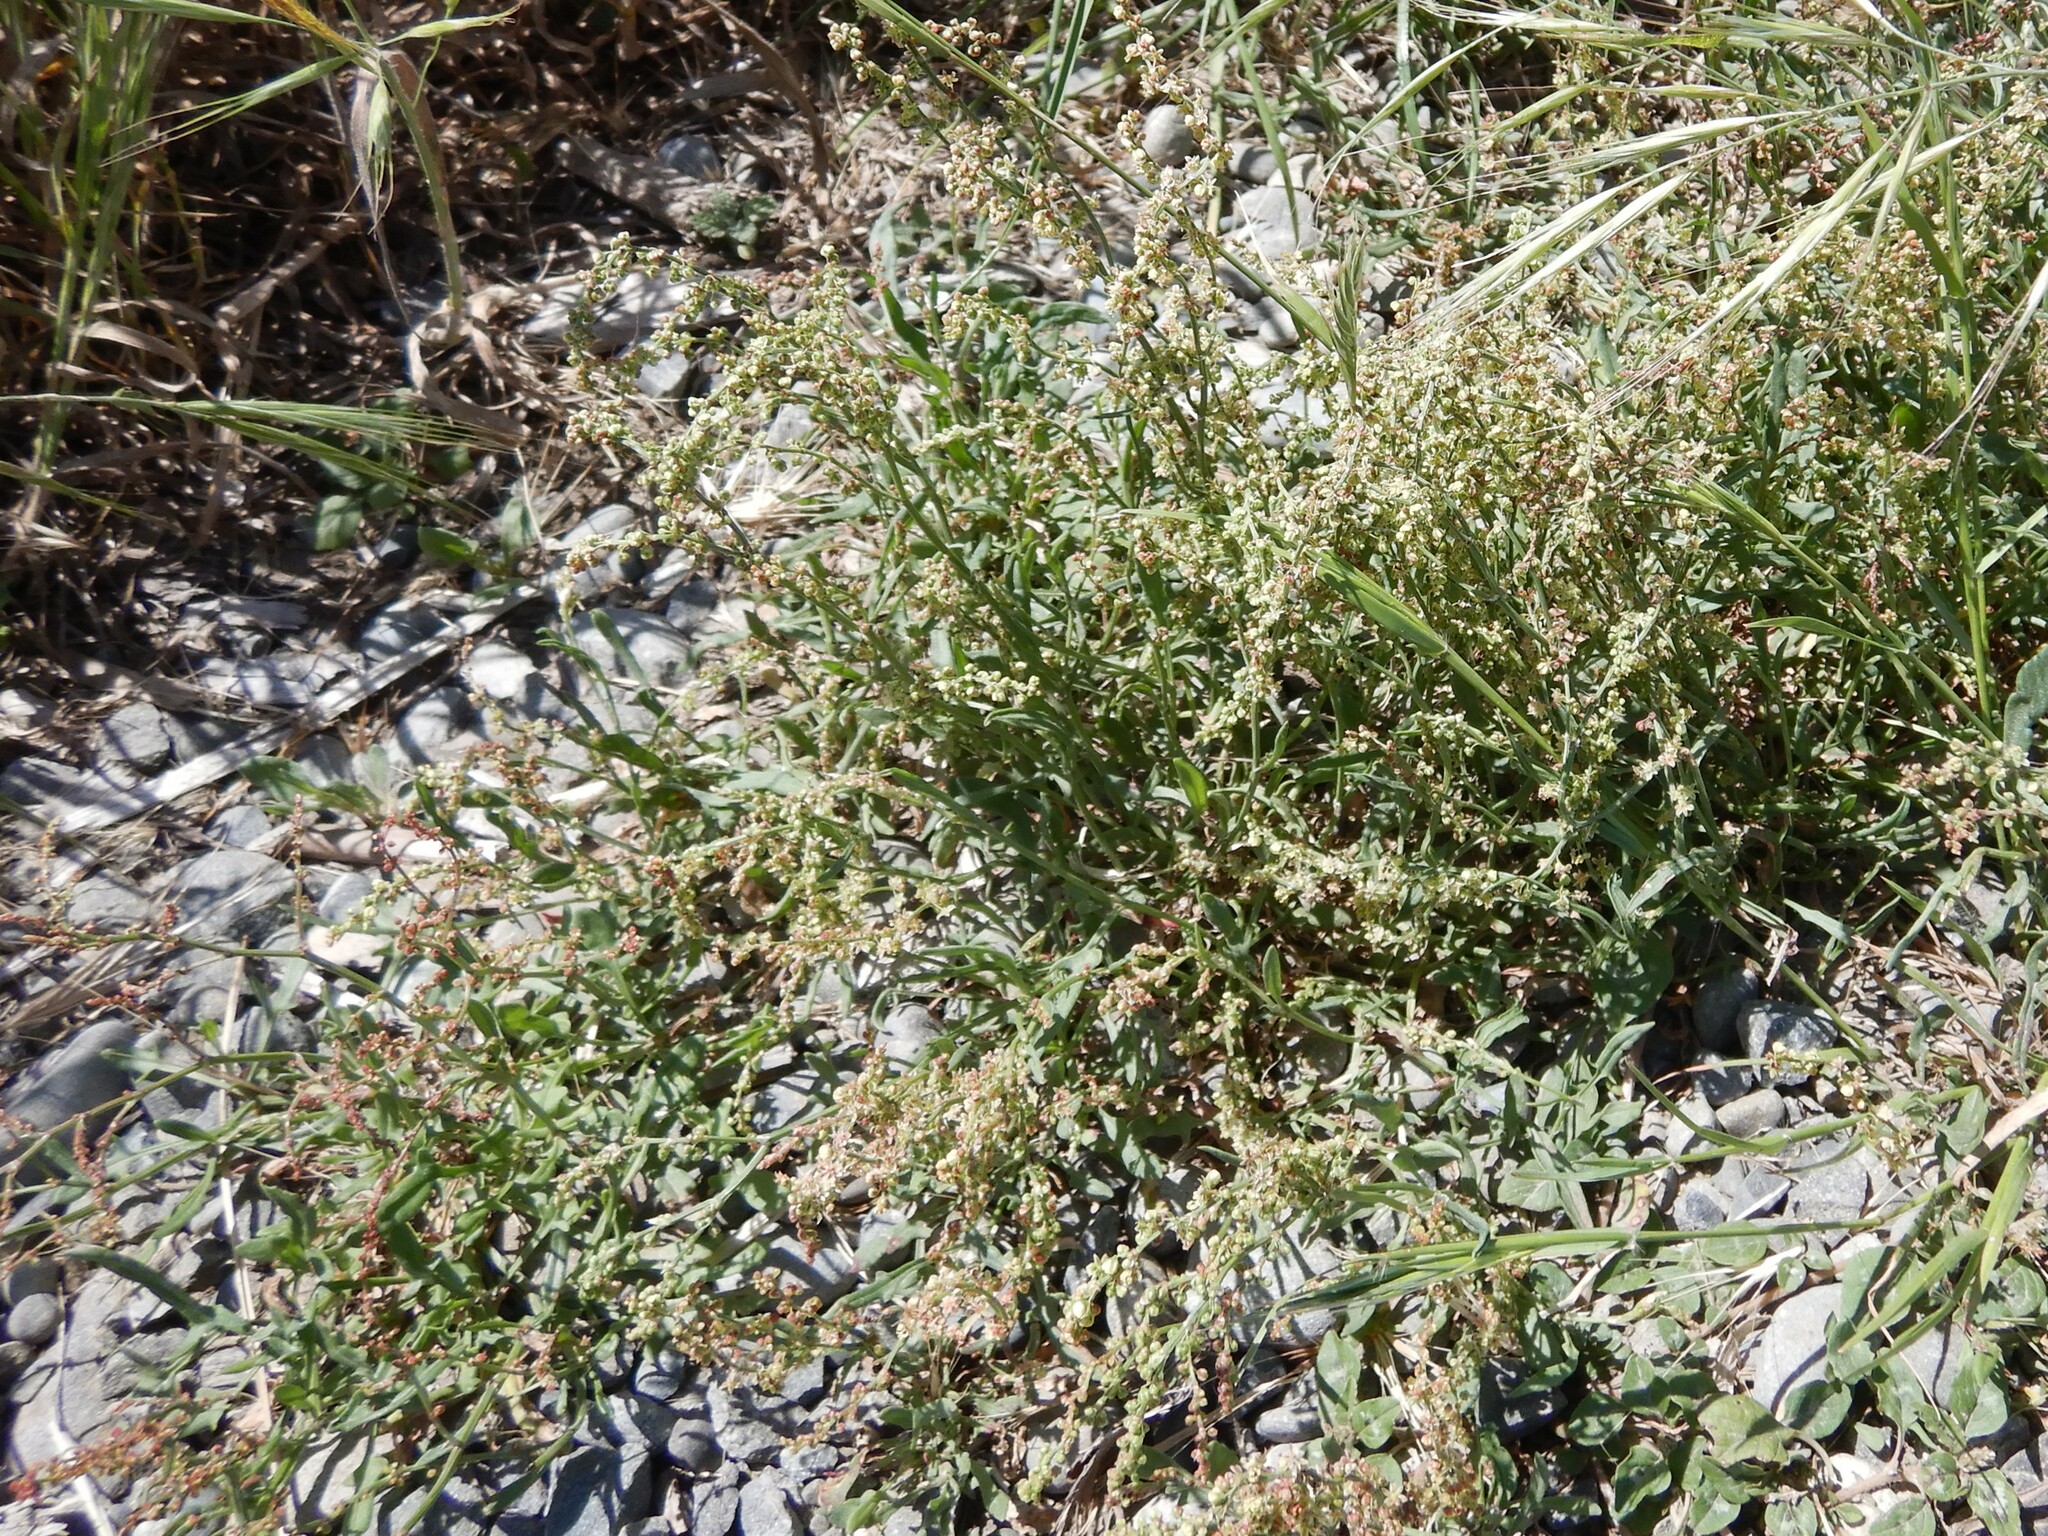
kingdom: Plantae
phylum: Tracheophyta
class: Magnoliopsida
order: Caryophyllales
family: Polygonaceae
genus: Rumex
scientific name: Rumex acetosella
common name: Common sheep sorrel
